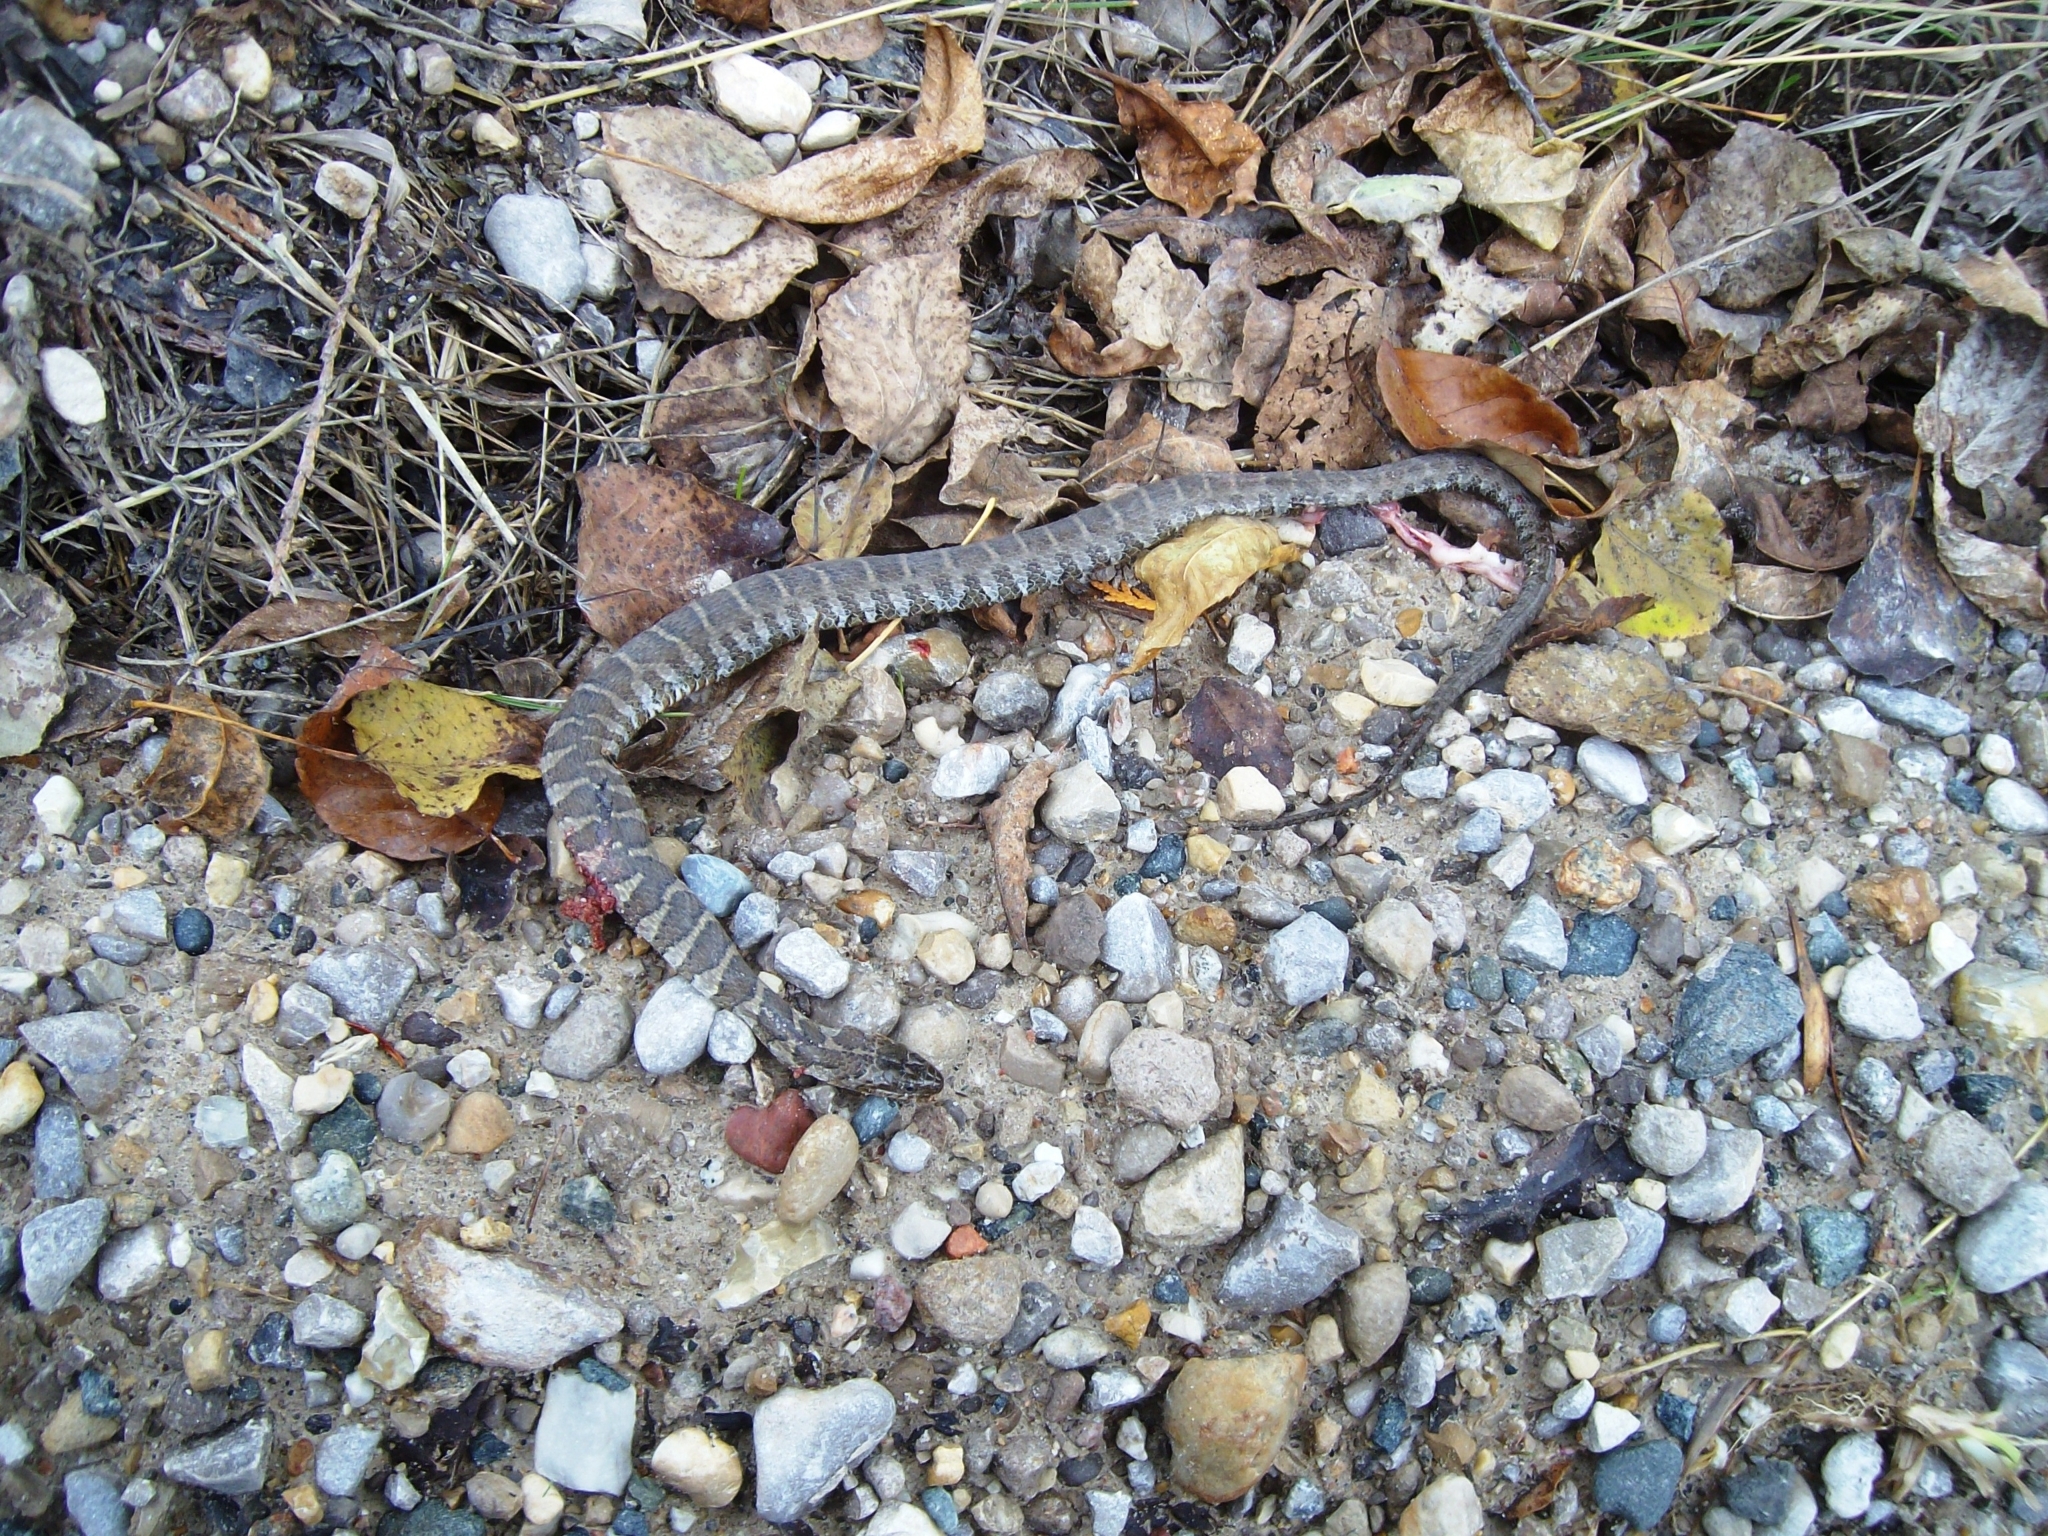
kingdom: Animalia
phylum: Chordata
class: Squamata
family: Colubridae
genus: Nerodia
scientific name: Nerodia sipedon
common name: Northern water snake
